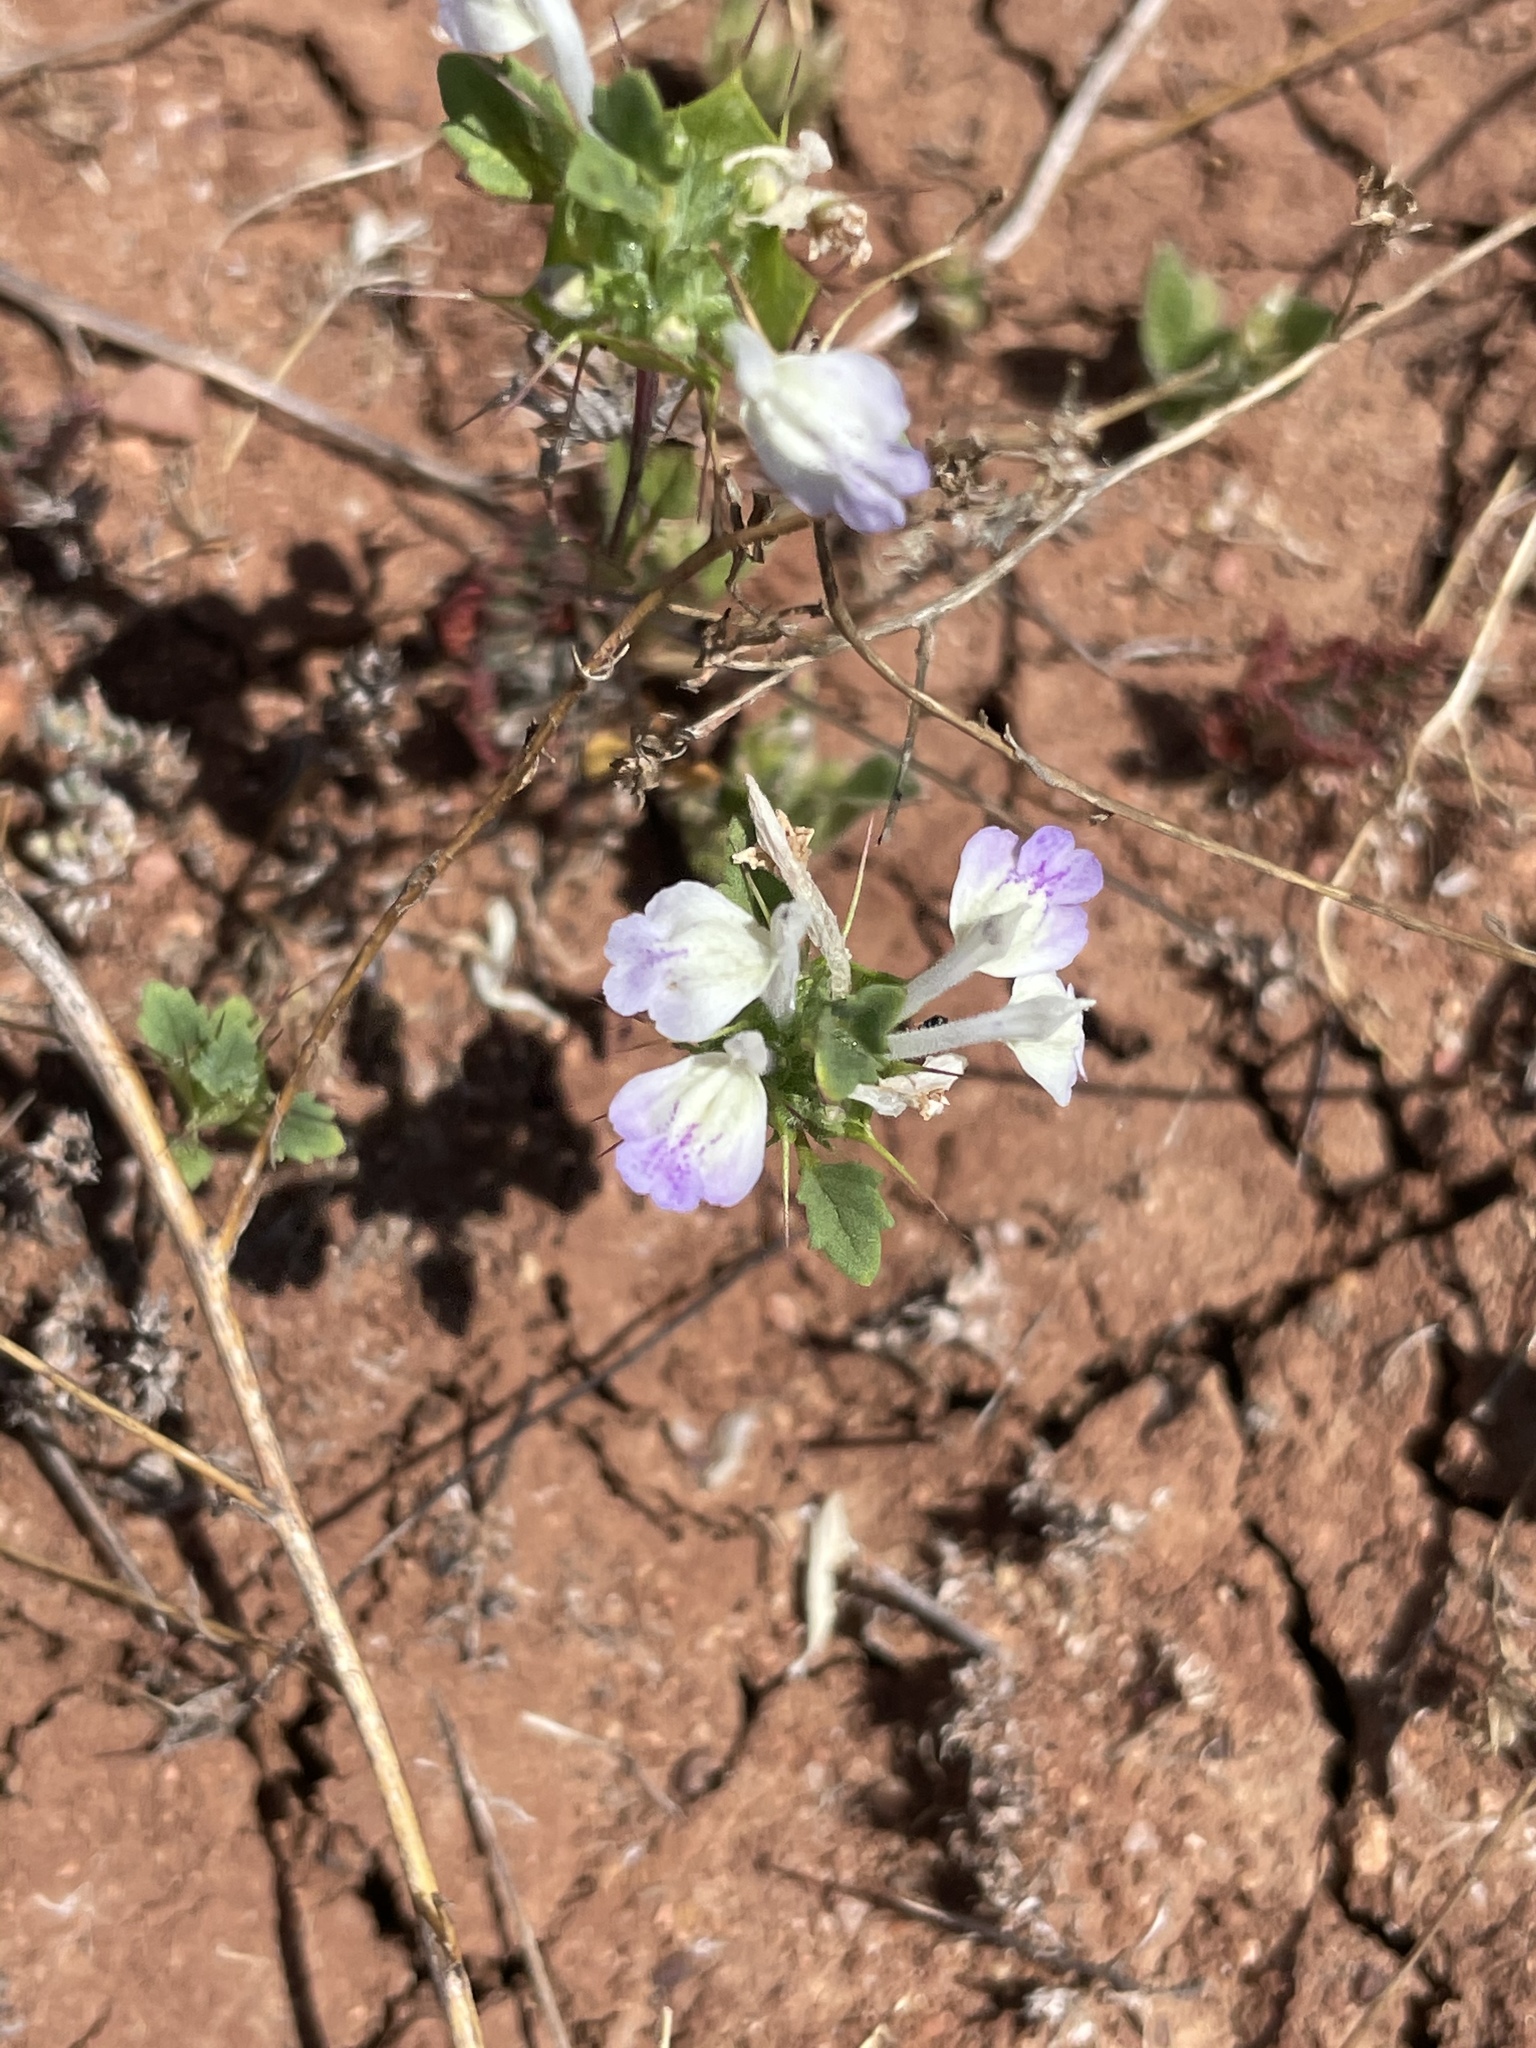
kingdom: Plantae
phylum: Tracheophyta
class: Magnoliopsida
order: Lamiales
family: Lamiaceae
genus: Acanthomintha
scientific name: Acanthomintha ilicifolia
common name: San diego thorn-mint
